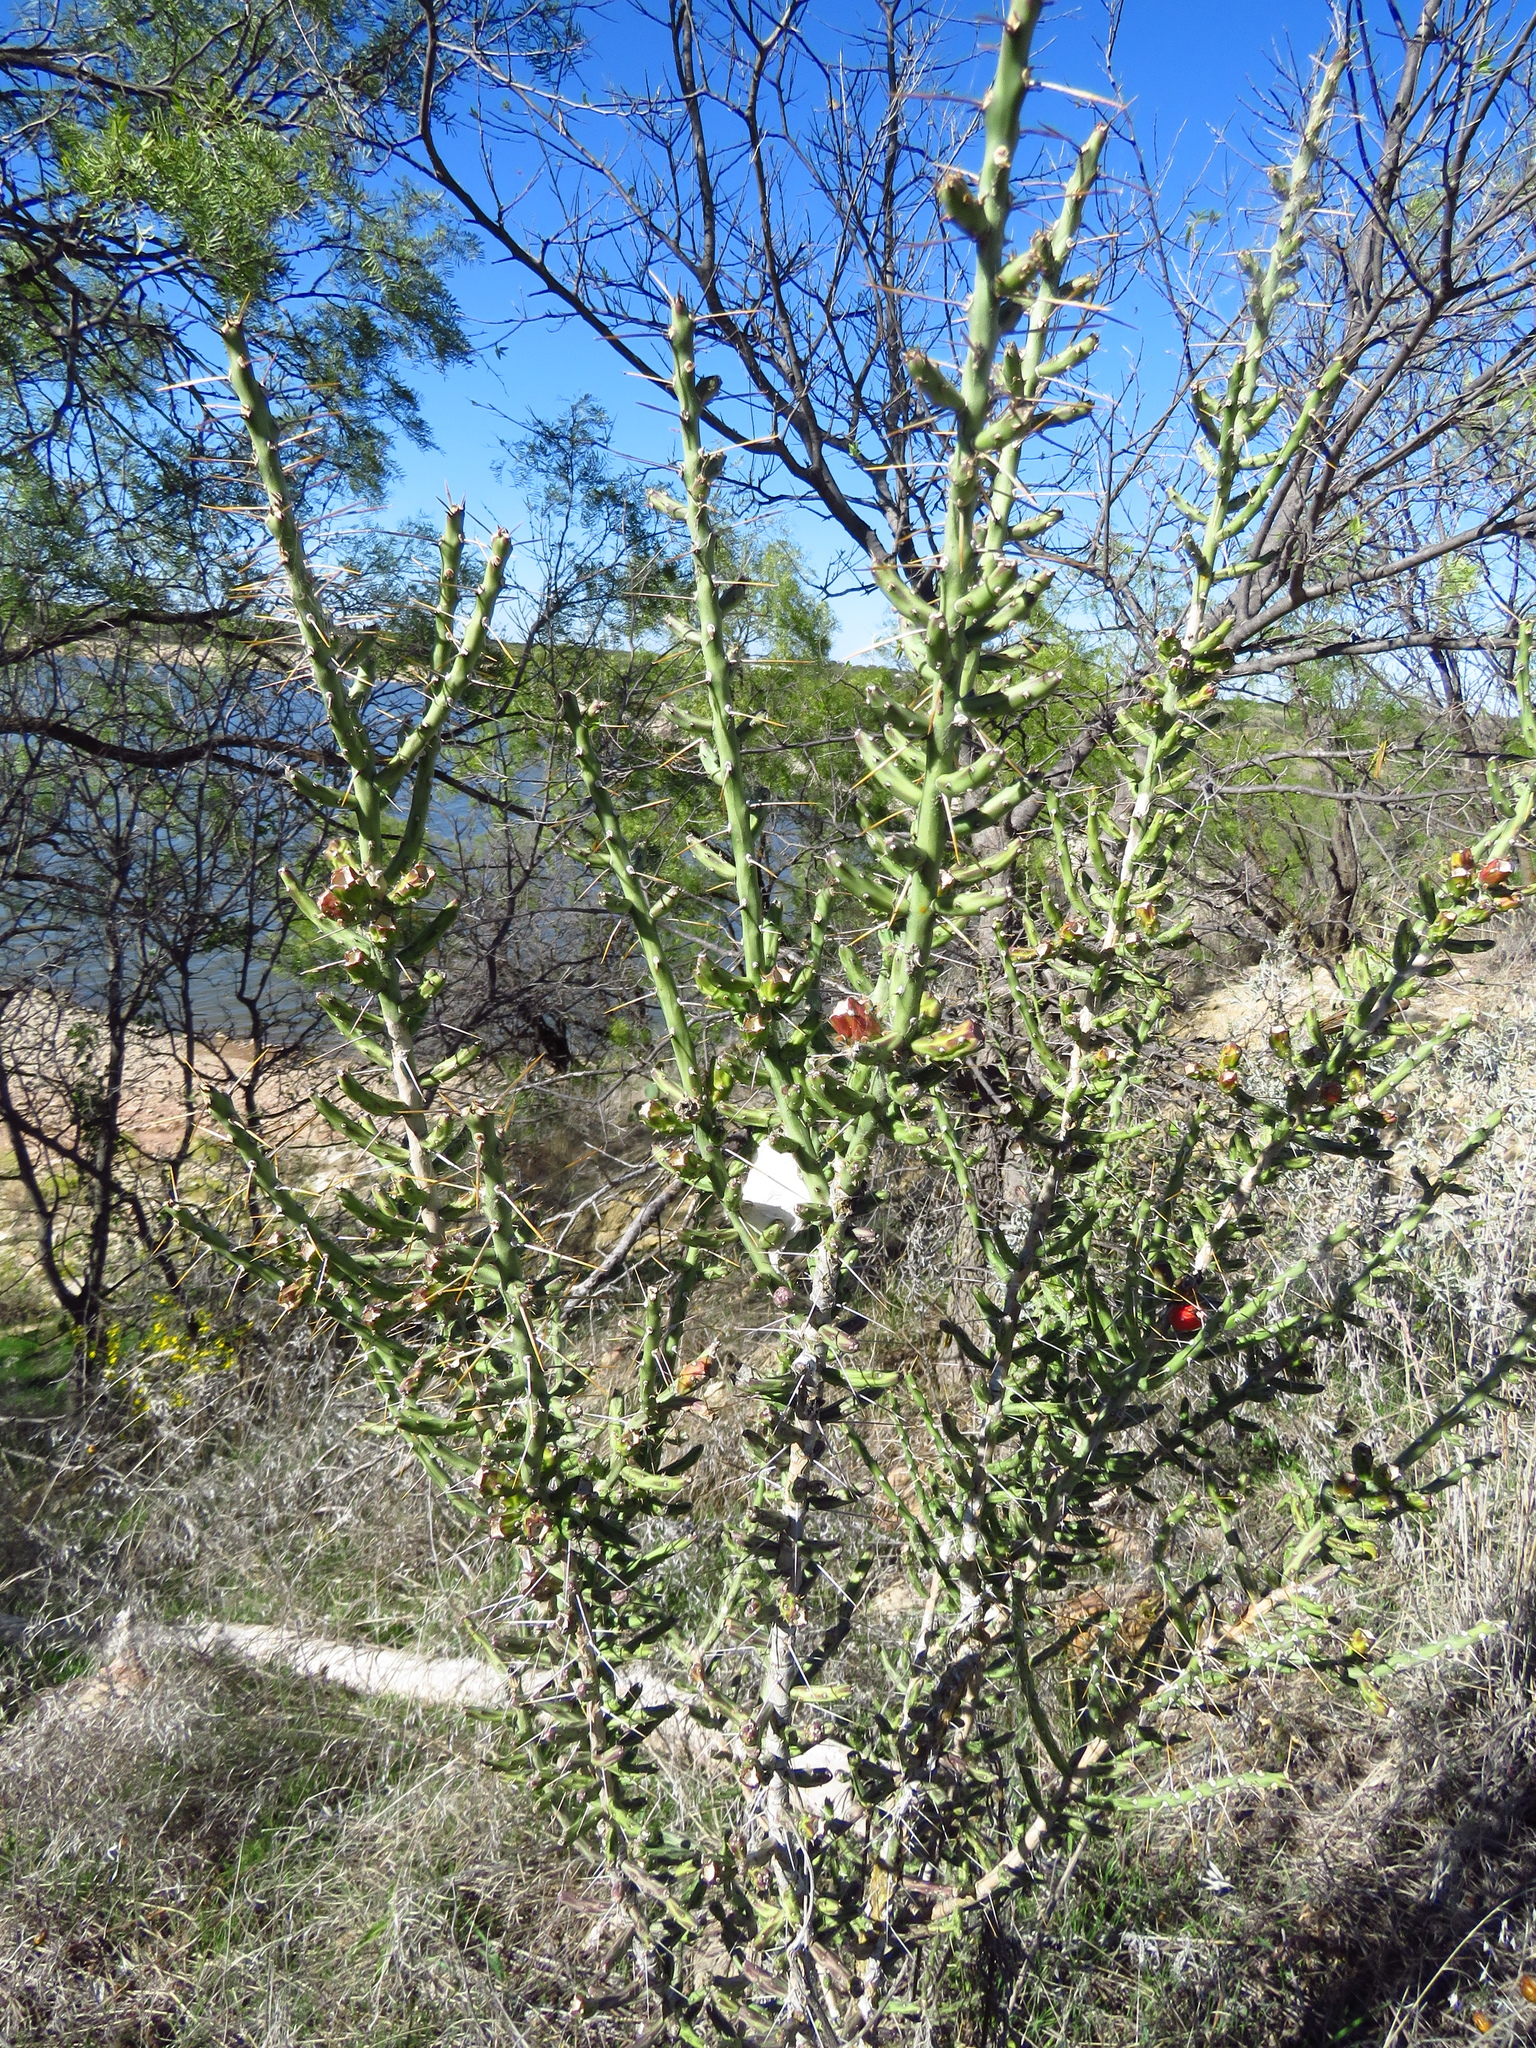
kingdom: Plantae
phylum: Tracheophyta
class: Magnoliopsida
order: Caryophyllales
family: Cactaceae
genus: Cylindropuntia
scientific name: Cylindropuntia leptocaulis
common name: Christmas cactus
